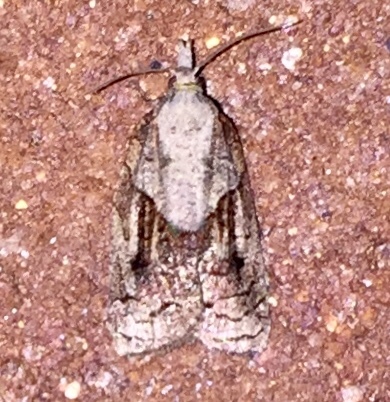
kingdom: Animalia
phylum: Arthropoda
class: Insecta
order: Lepidoptera
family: Tortricidae
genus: Platynota
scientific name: Platynota idaeusalis
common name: Tufted apple bud moth
